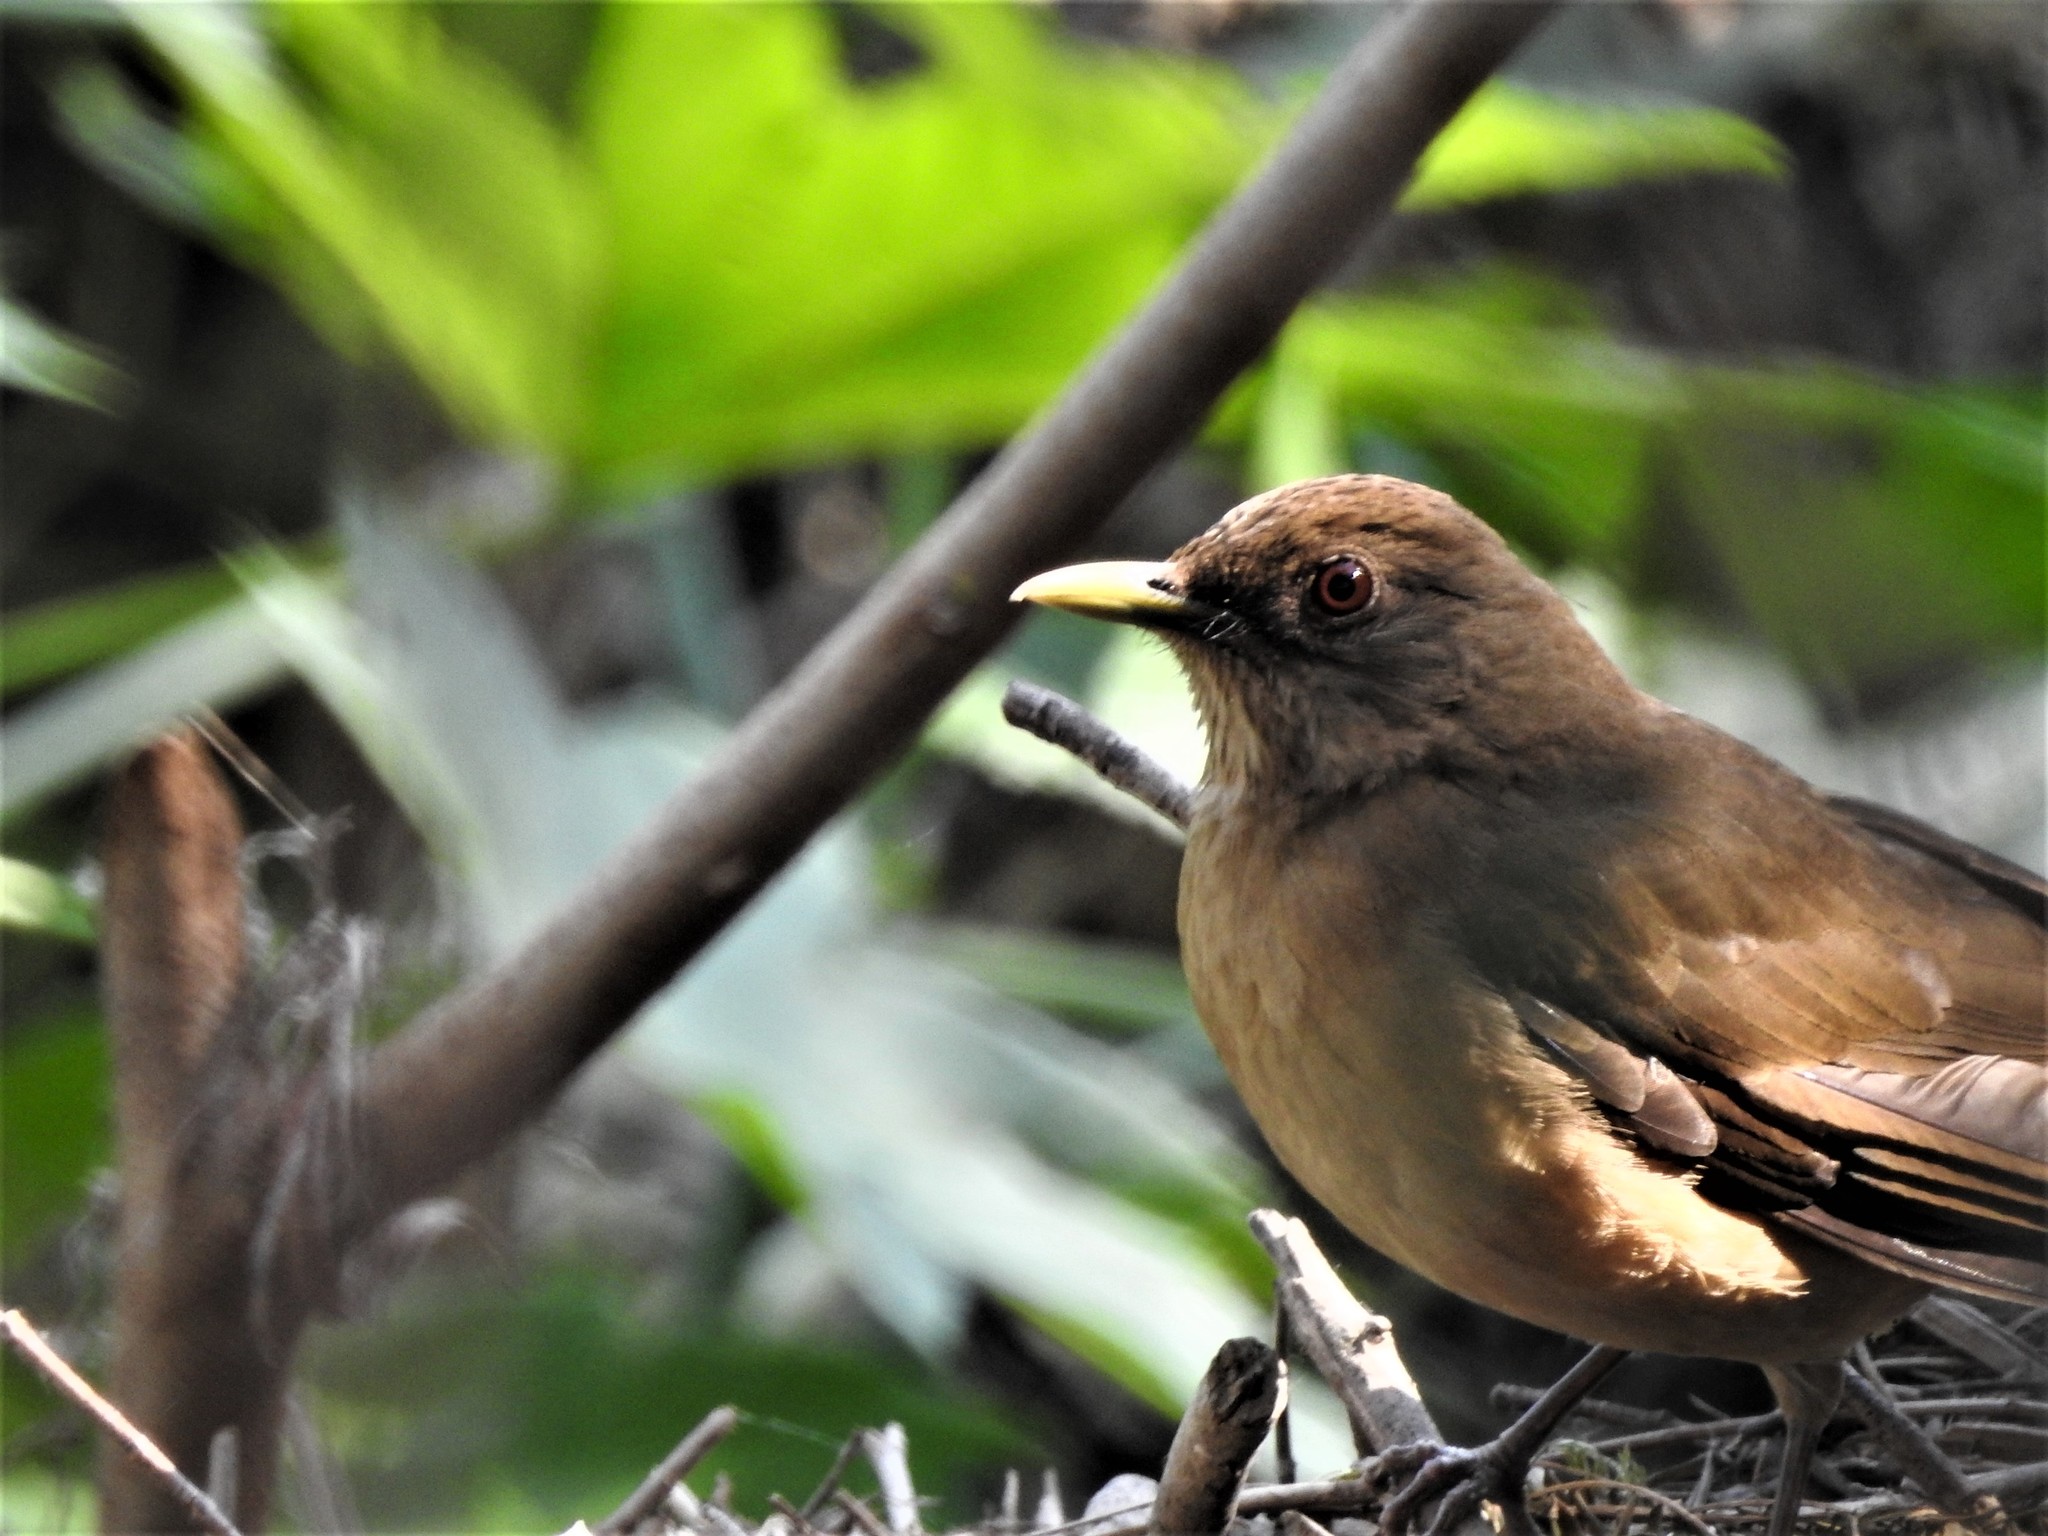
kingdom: Animalia
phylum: Chordata
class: Aves
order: Passeriformes
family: Turdidae
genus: Turdus
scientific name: Turdus grayi
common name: Clay-colored thrush
